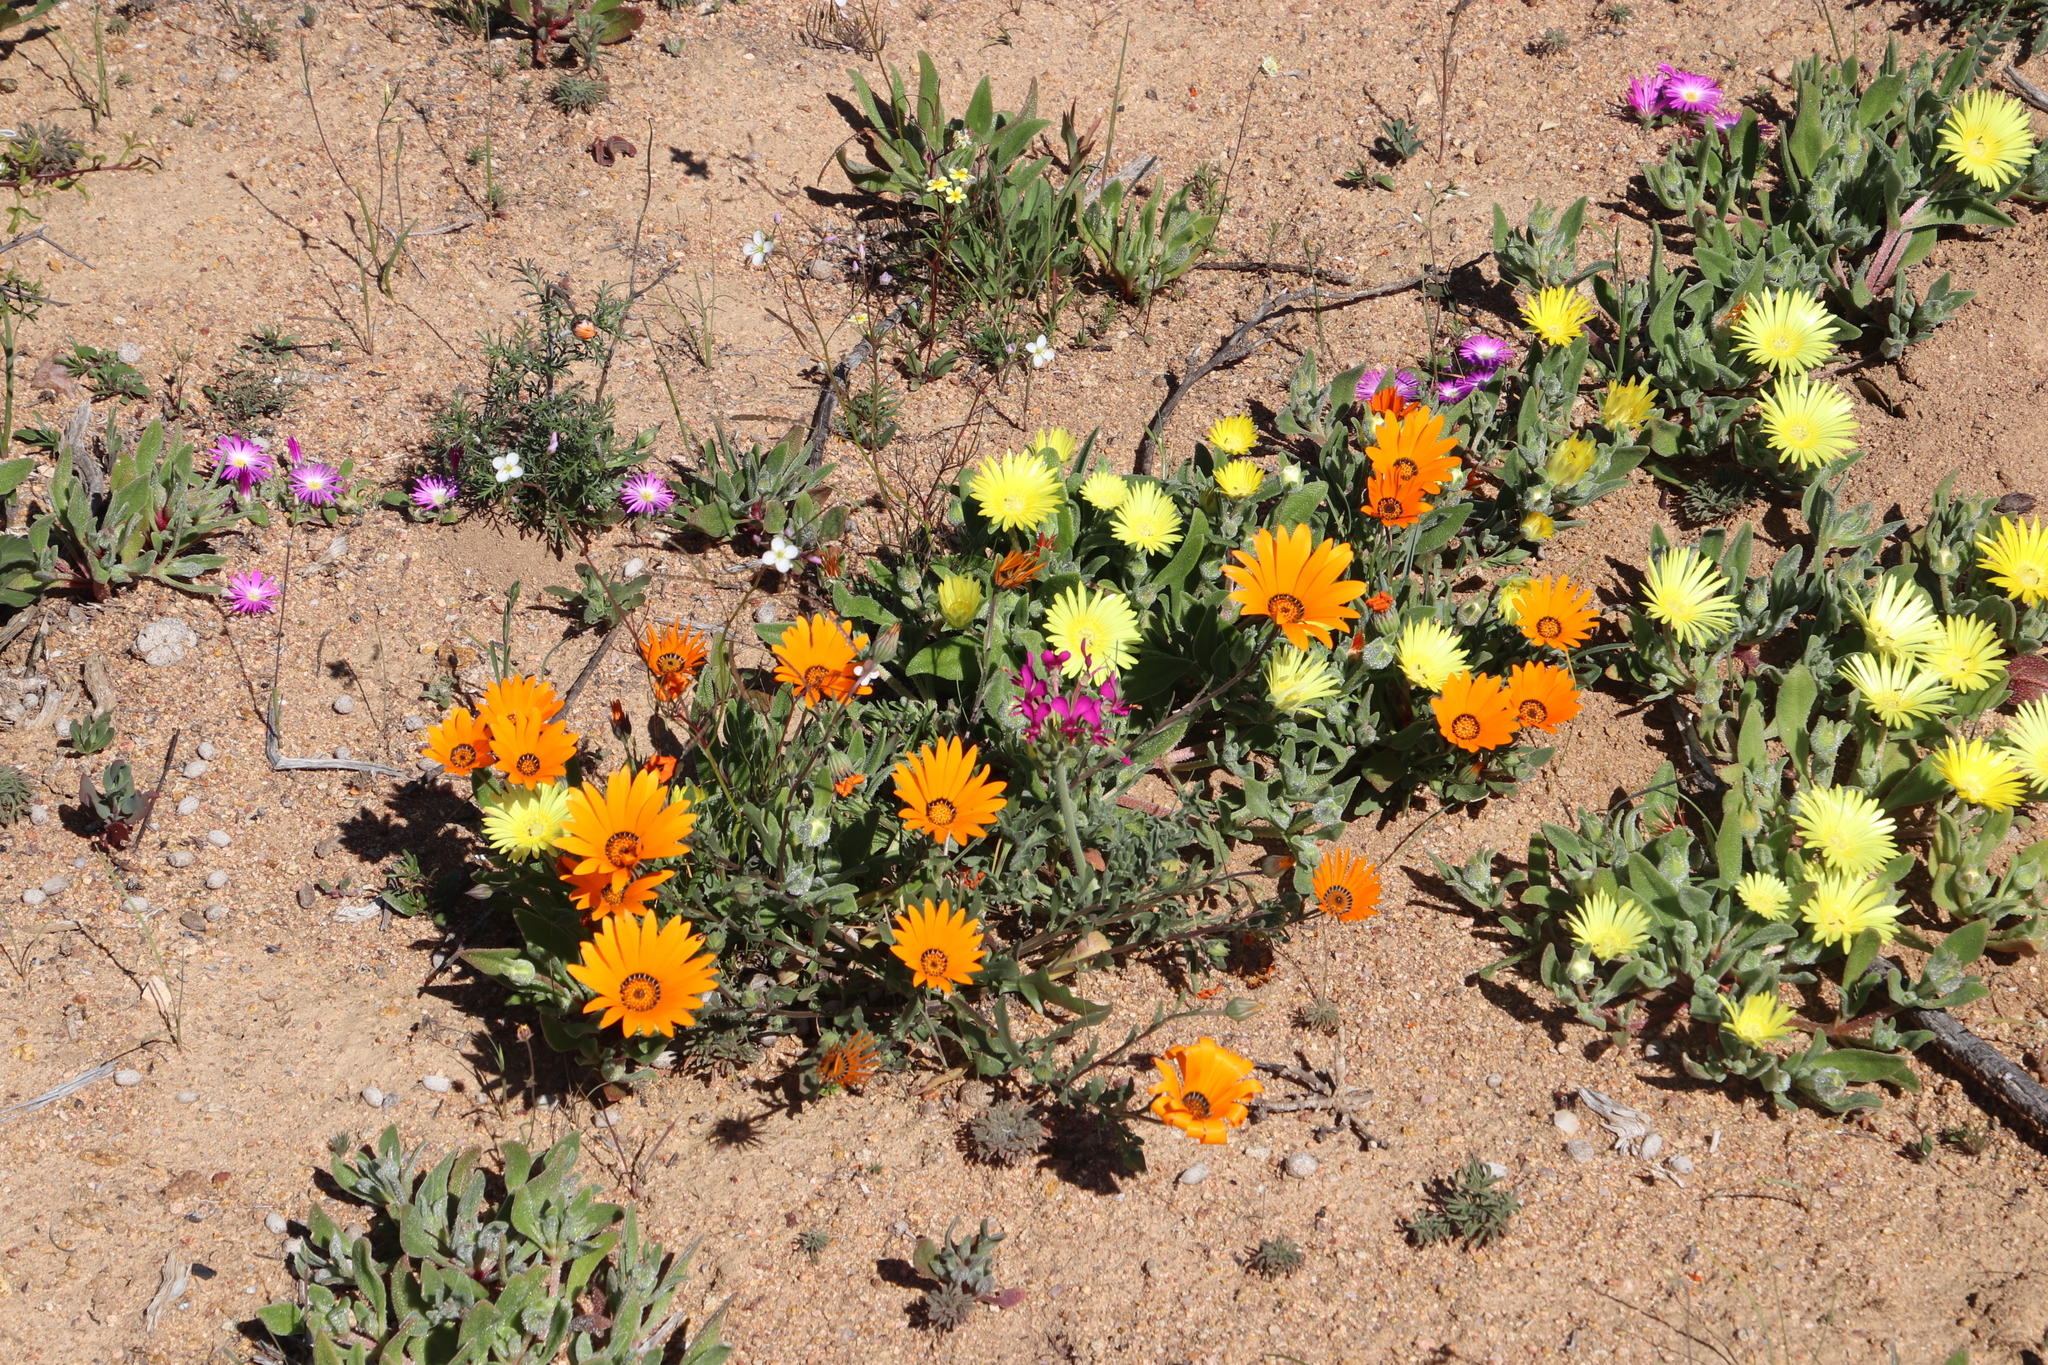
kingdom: Plantae
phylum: Tracheophyta
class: Magnoliopsida
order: Brassicales
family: Brassicaceae
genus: Heliophila
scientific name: Heliophila variabilis
